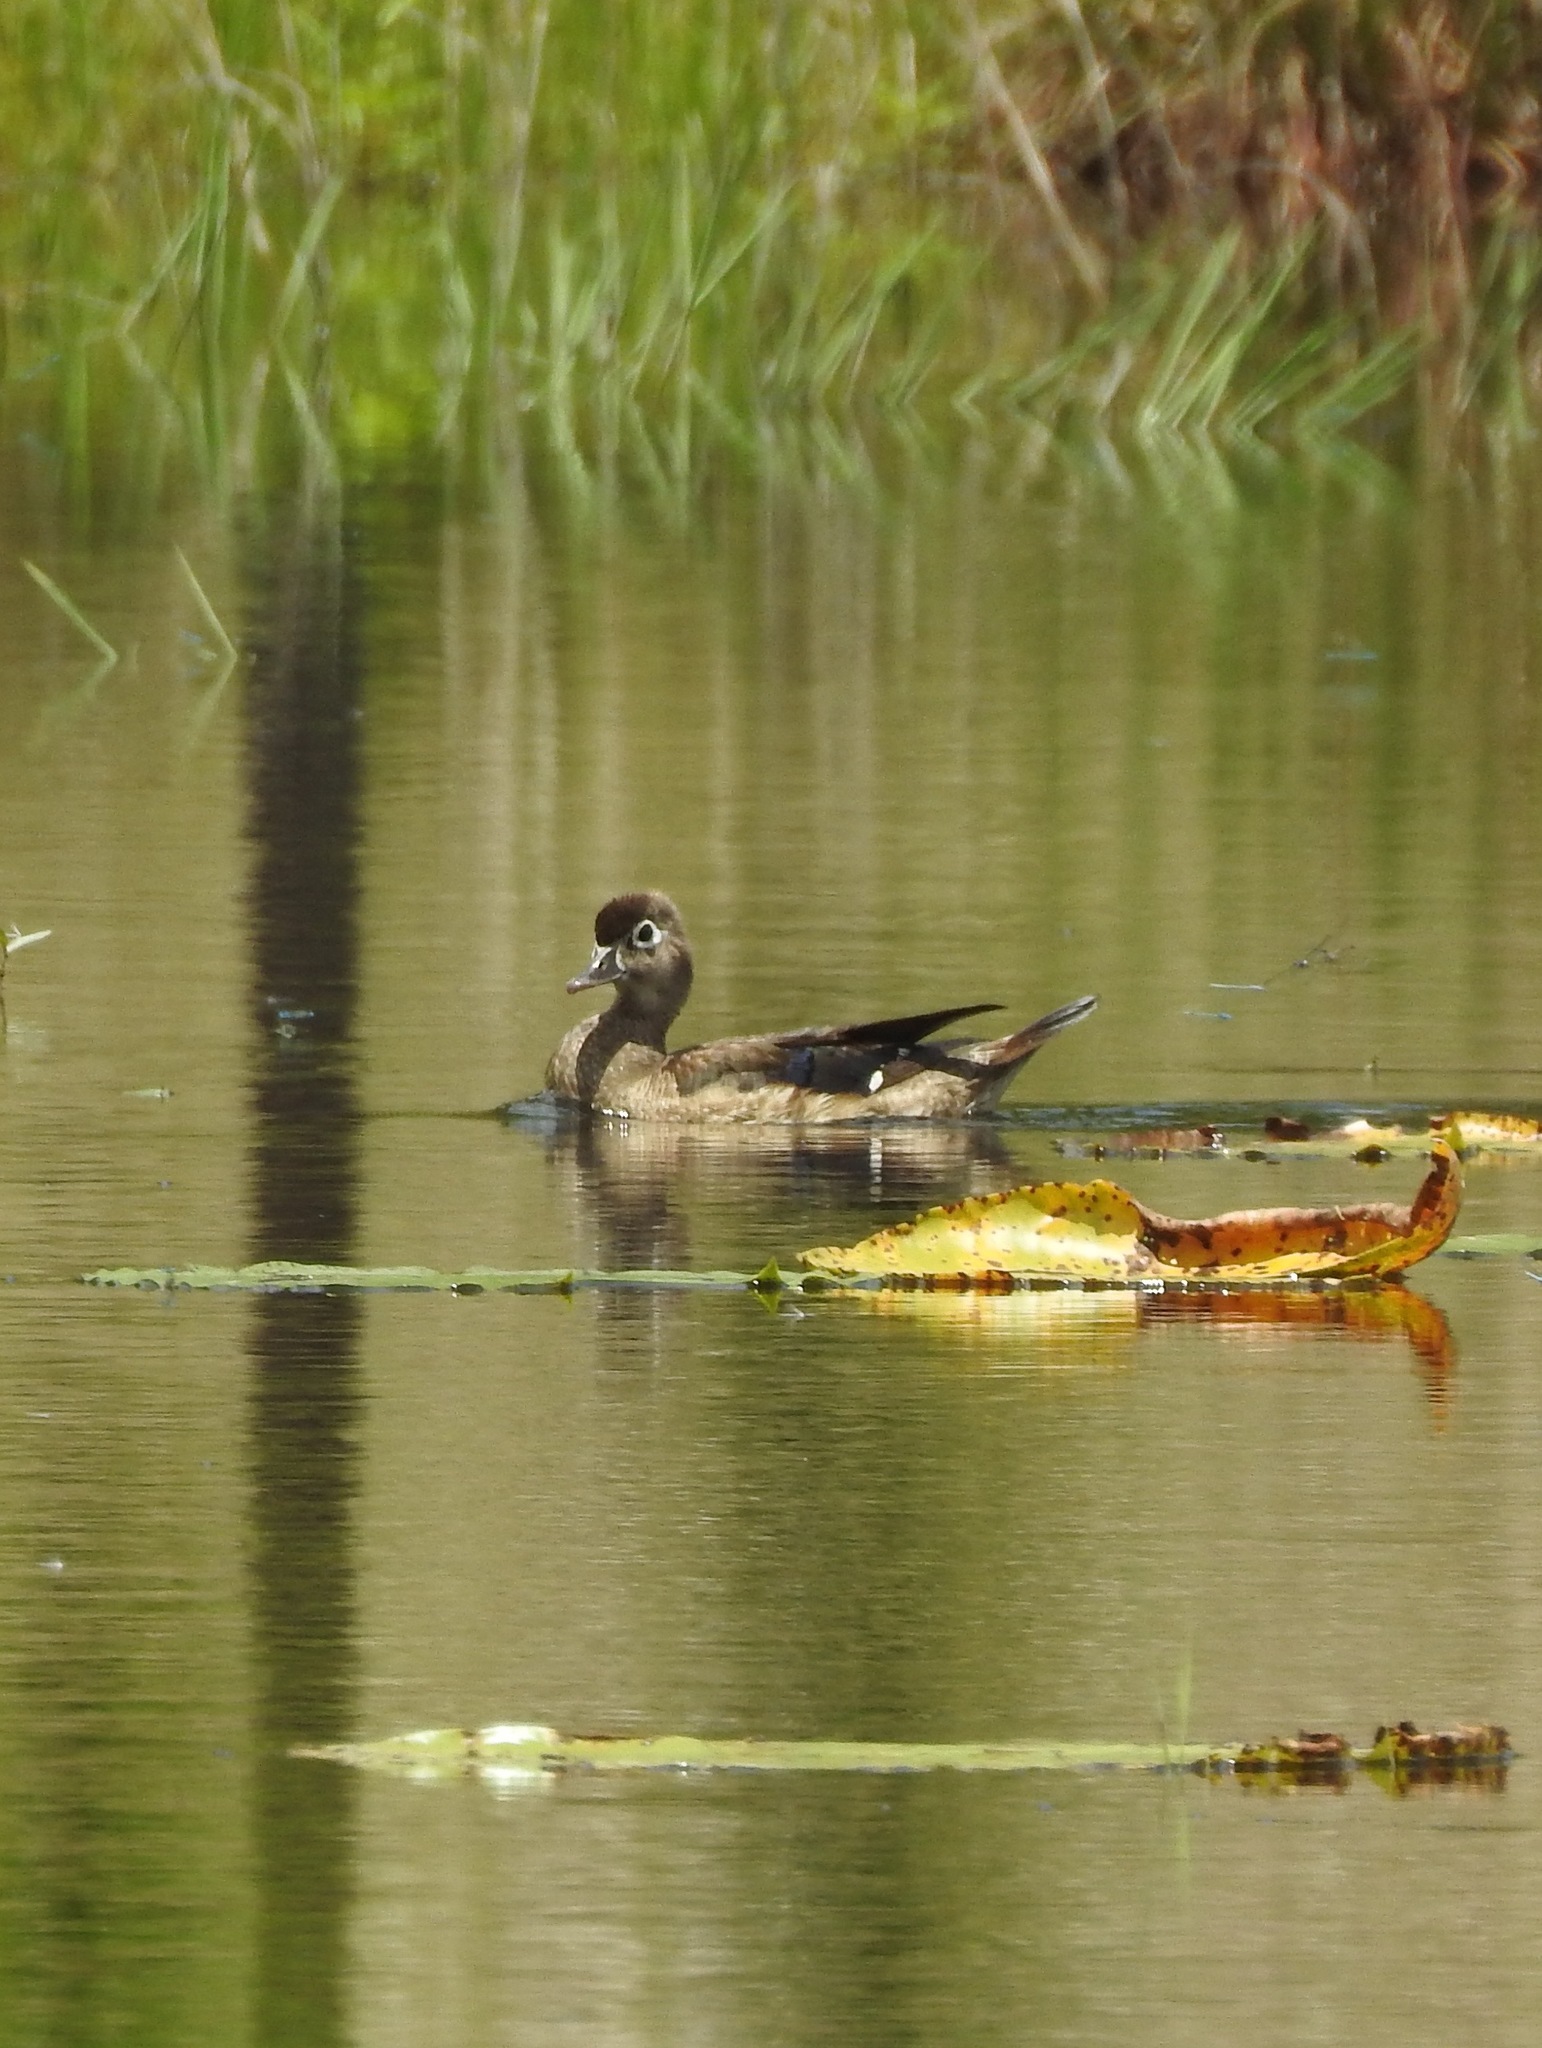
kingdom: Animalia
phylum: Chordata
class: Aves
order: Anseriformes
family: Anatidae
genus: Aix
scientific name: Aix sponsa
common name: Wood duck
